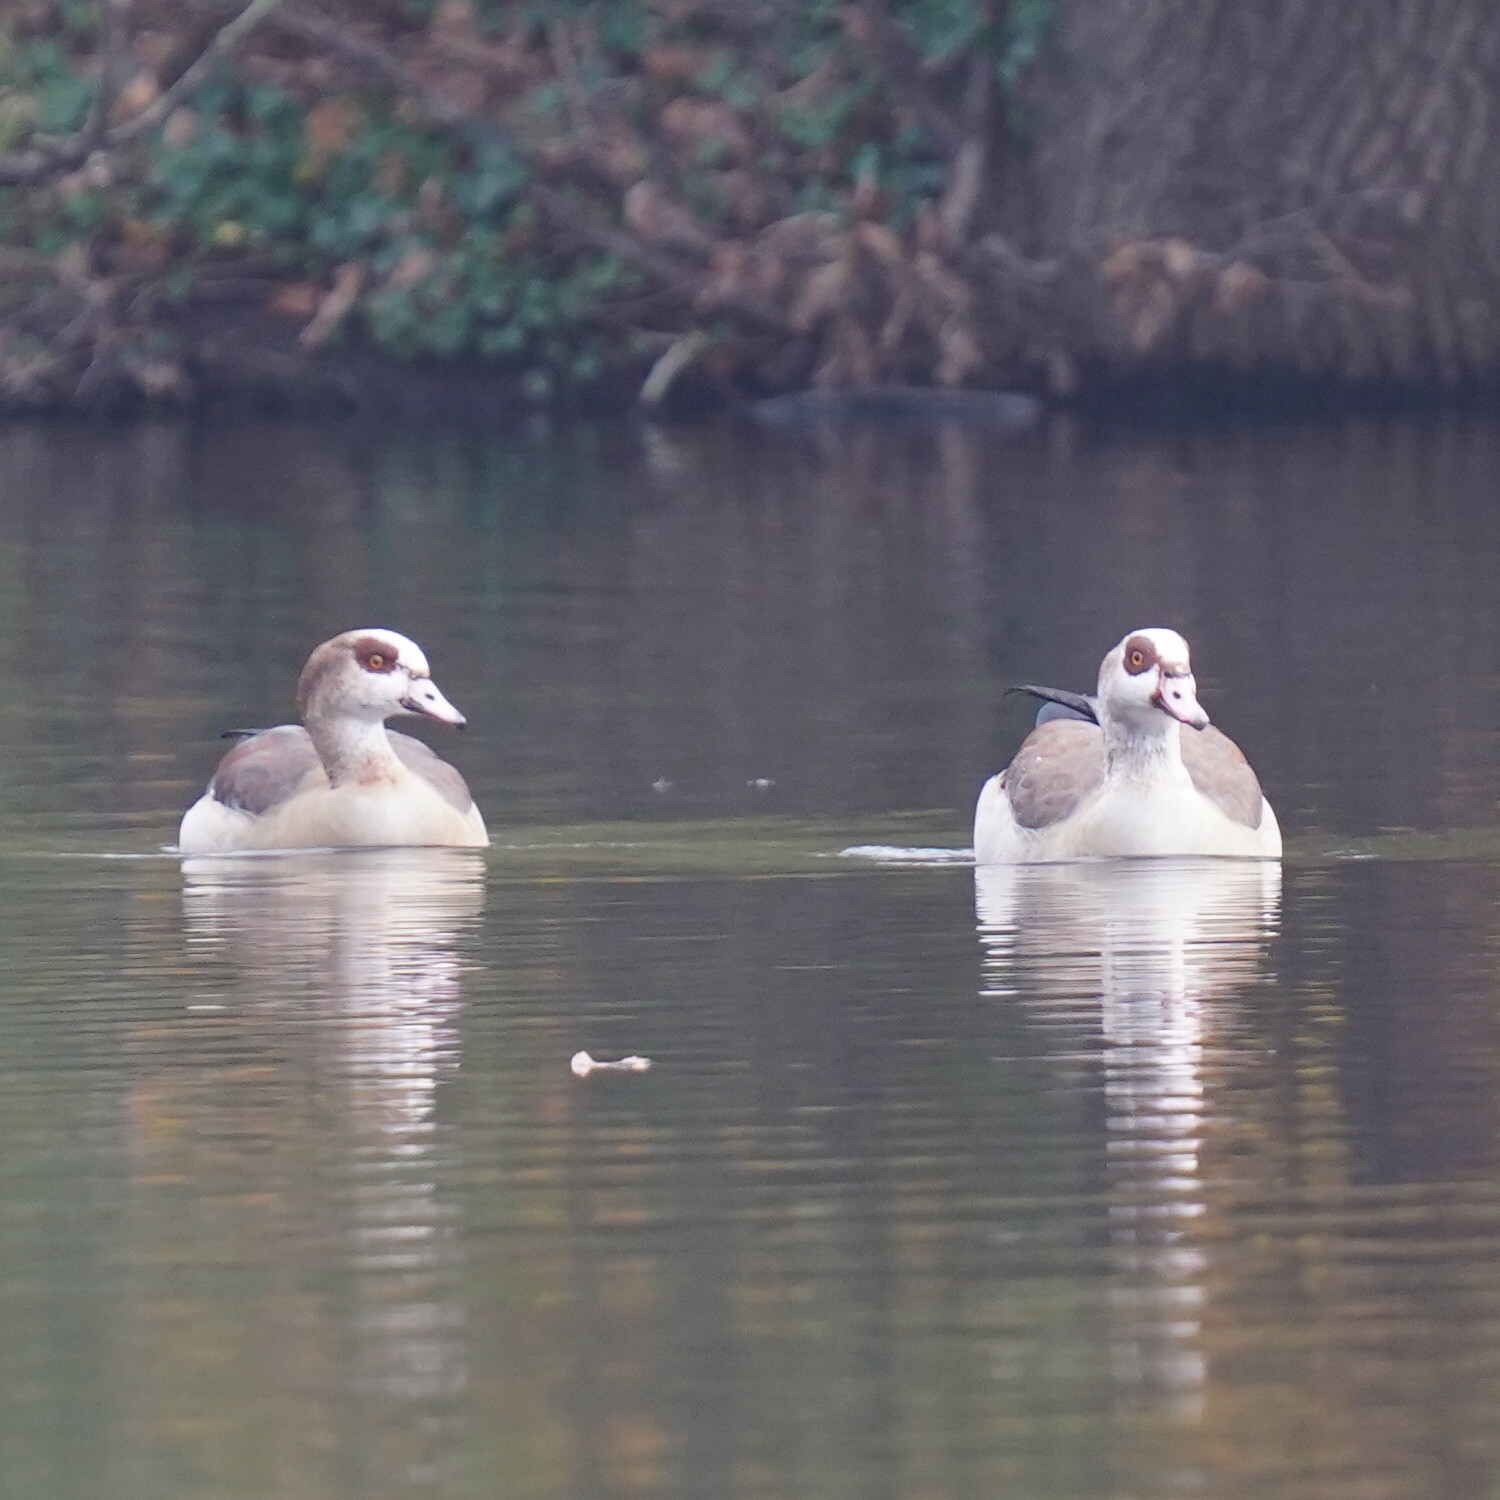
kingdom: Animalia
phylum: Chordata
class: Aves
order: Anseriformes
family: Anatidae
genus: Alopochen
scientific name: Alopochen aegyptiaca
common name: Egyptian goose
